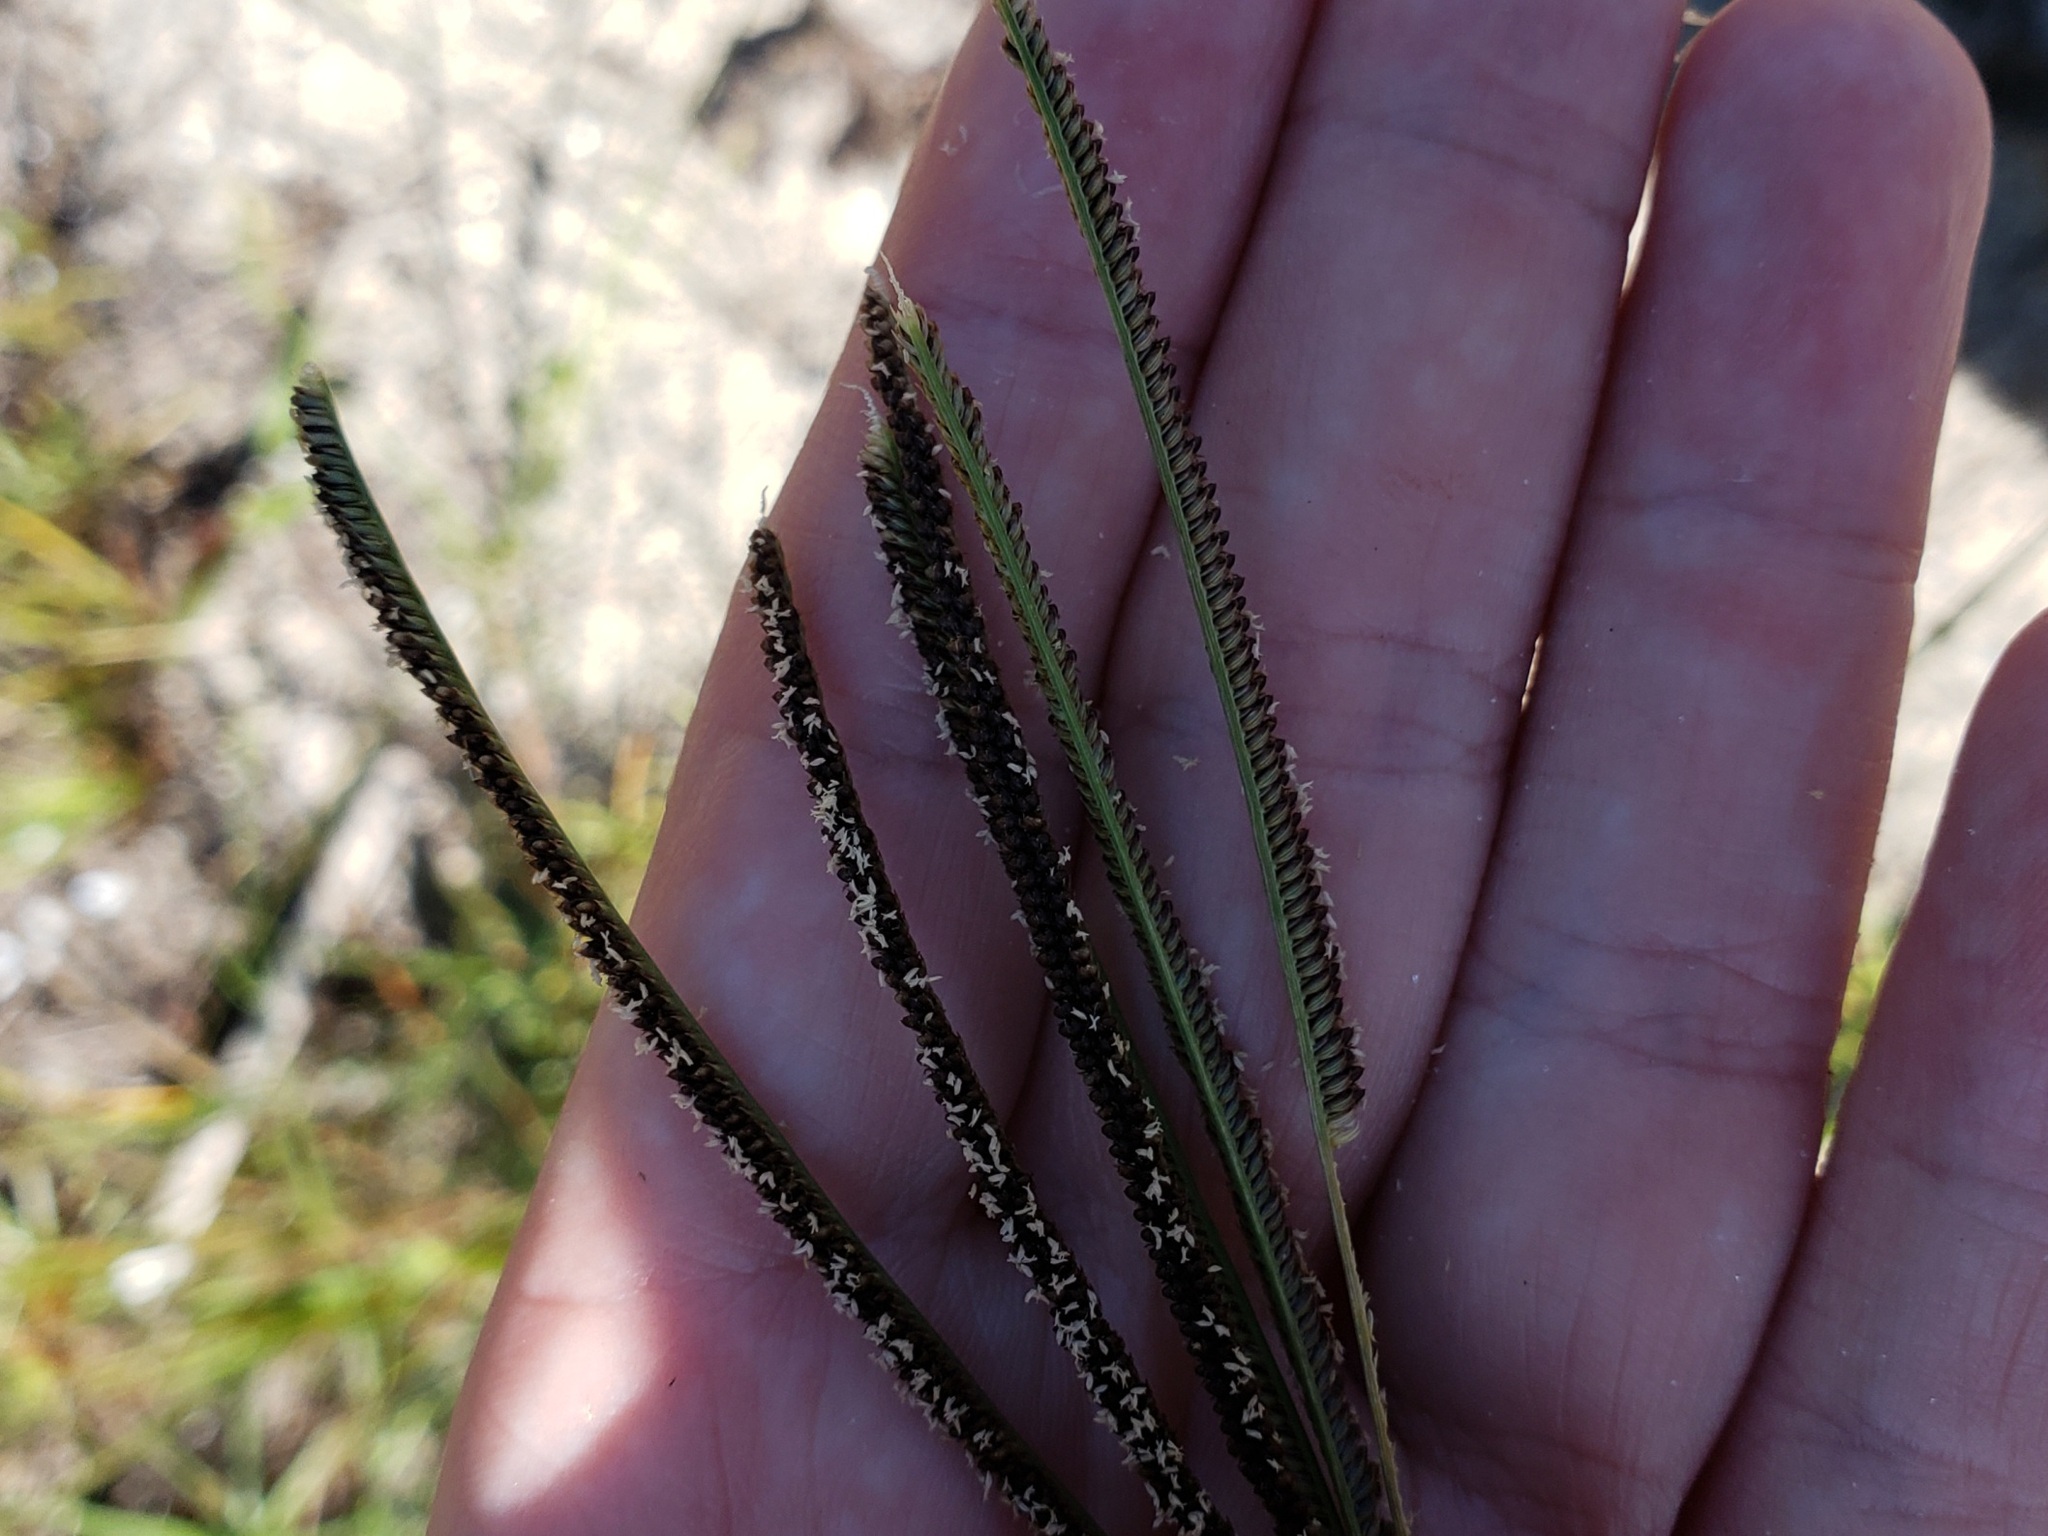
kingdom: Plantae
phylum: Tracheophyta
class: Liliopsida
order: Poales
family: Poaceae
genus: Eustachys
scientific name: Eustachys petraea
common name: Pinewoods fingergrass
